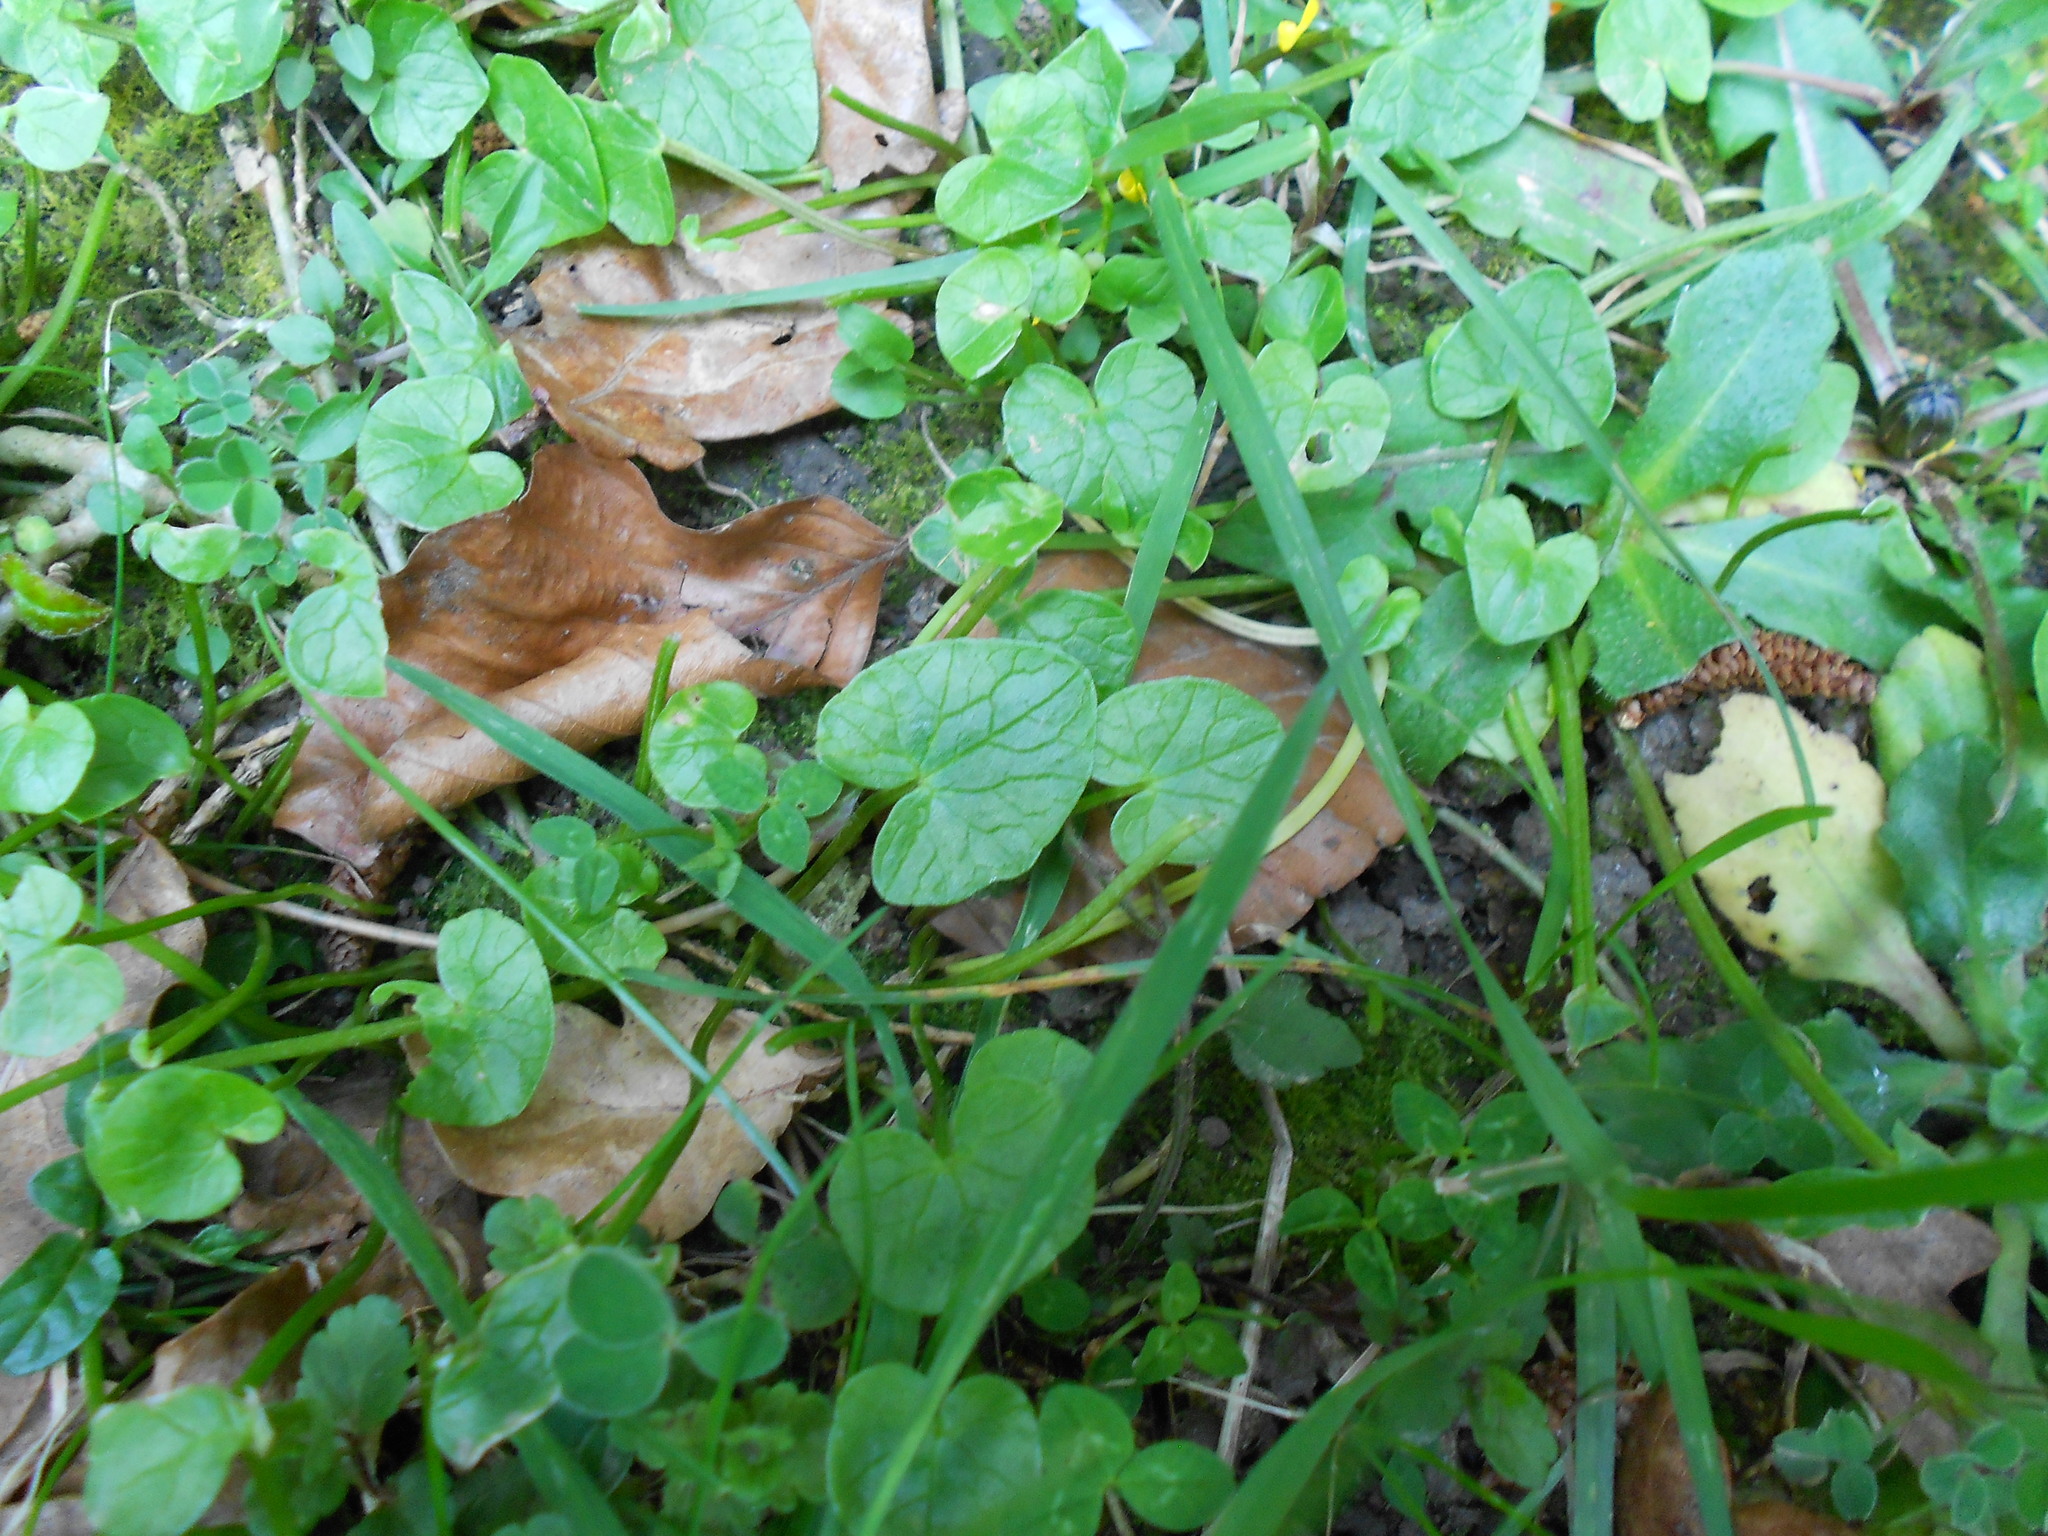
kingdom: Plantae
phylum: Tracheophyta
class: Magnoliopsida
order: Ranunculales
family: Ranunculaceae
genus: Ficaria
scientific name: Ficaria verna
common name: Lesser celandine
